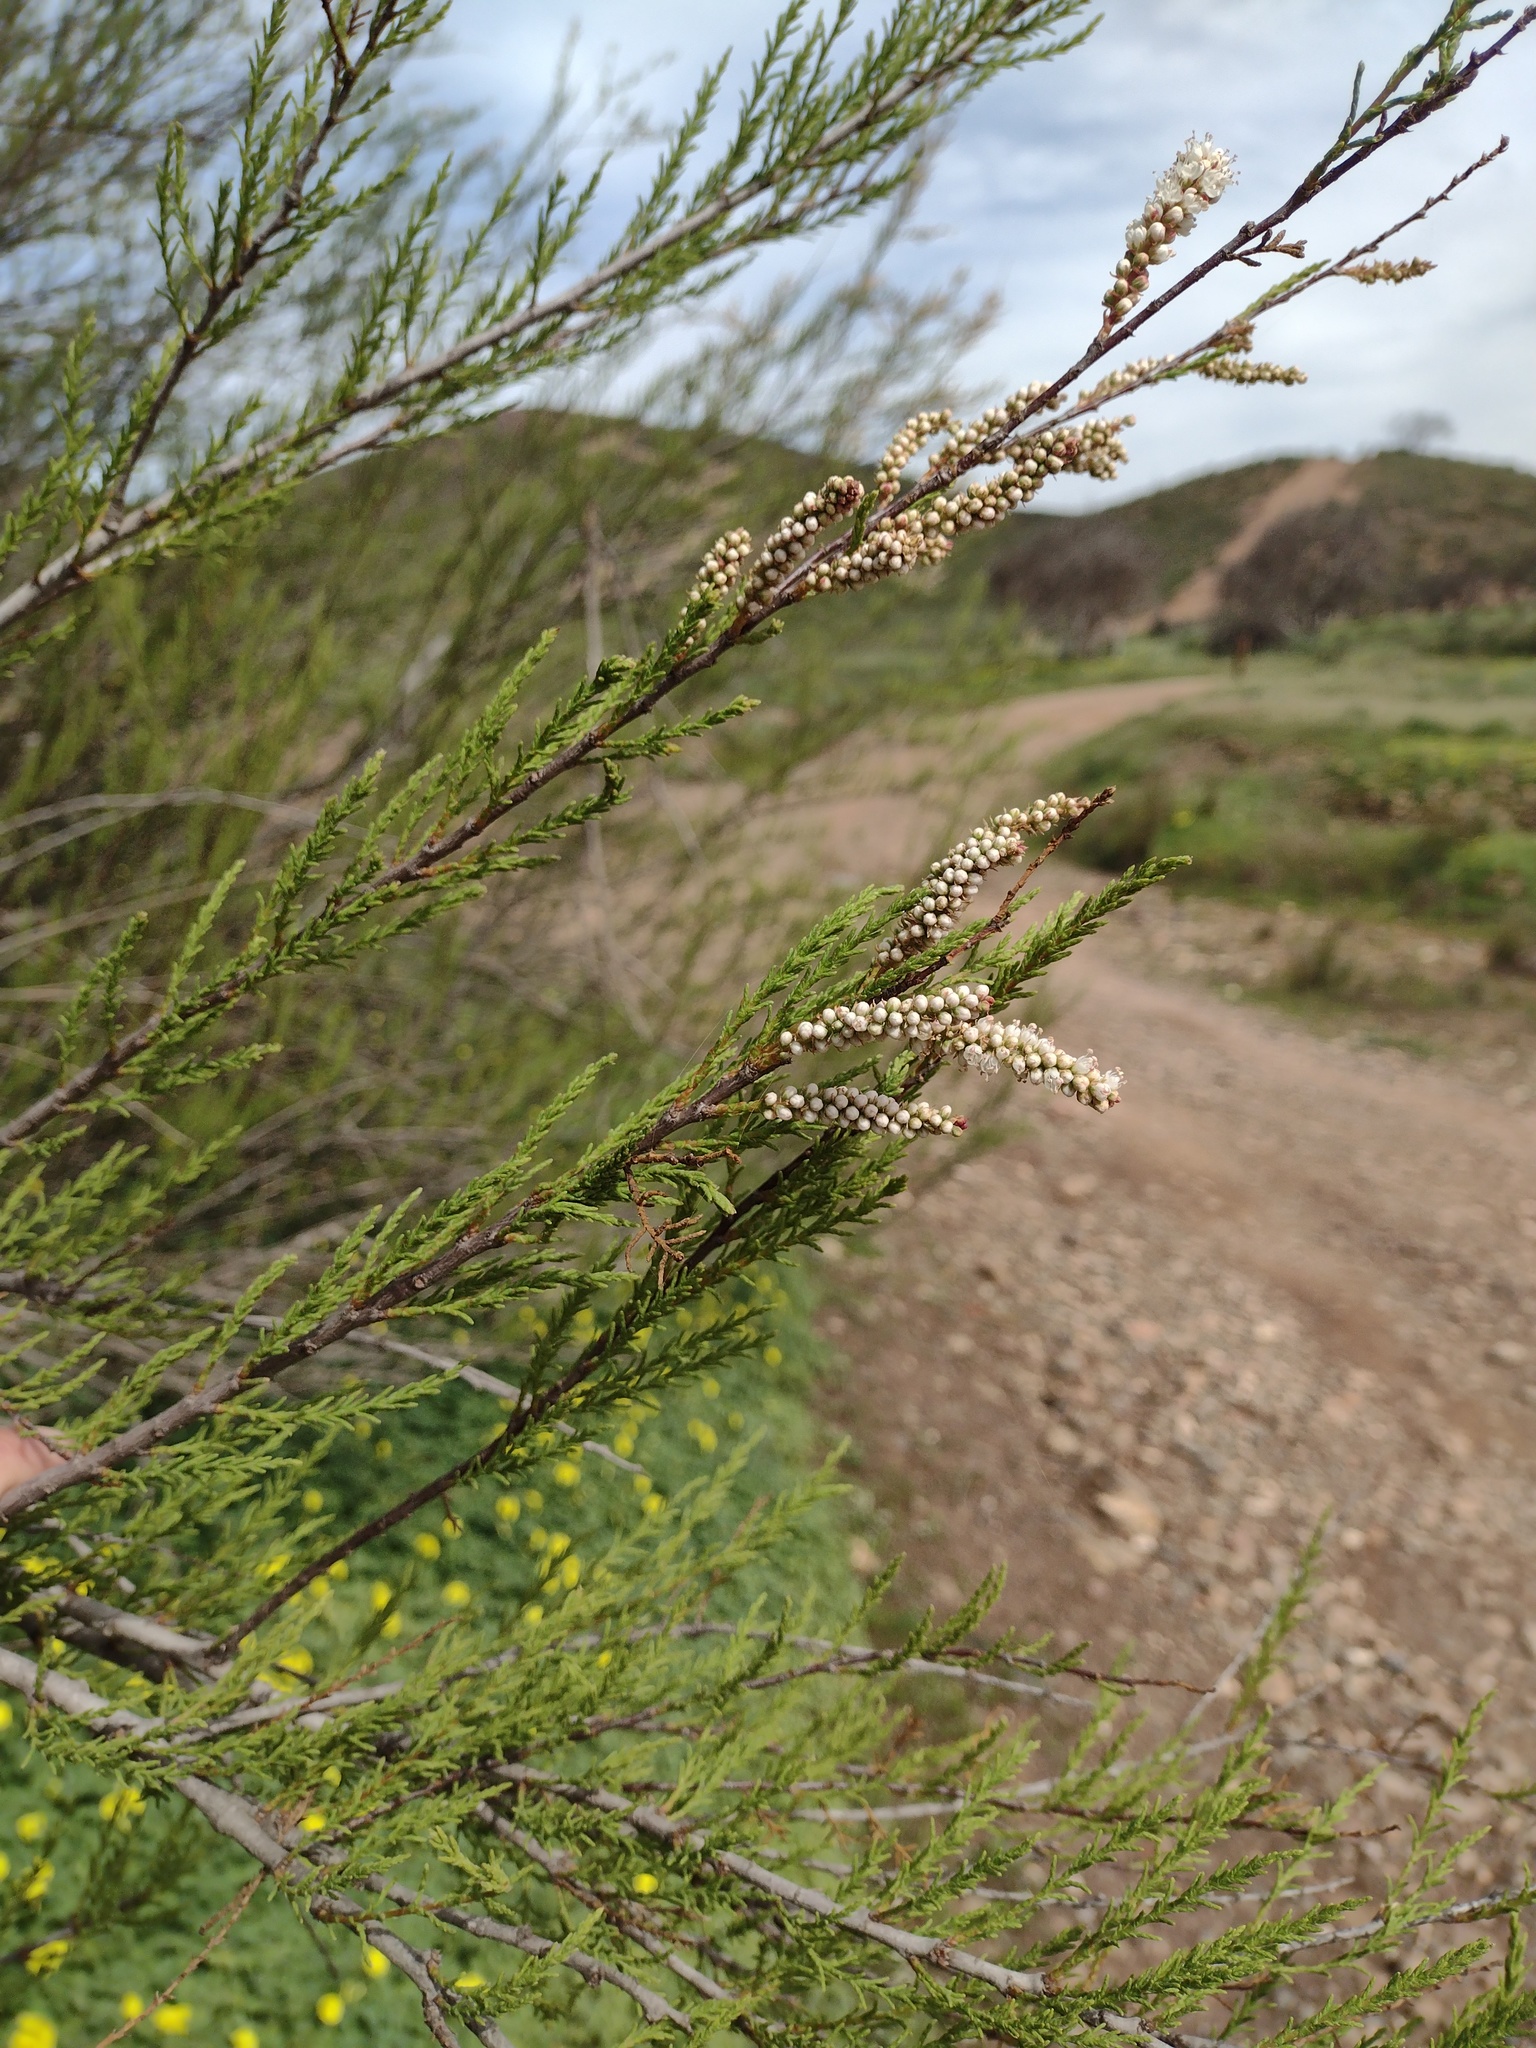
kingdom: Plantae
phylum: Tracheophyta
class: Magnoliopsida
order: Caryophyllales
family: Tamaricaceae
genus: Tamarix
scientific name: Tamarix africana
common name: African tamarisk
